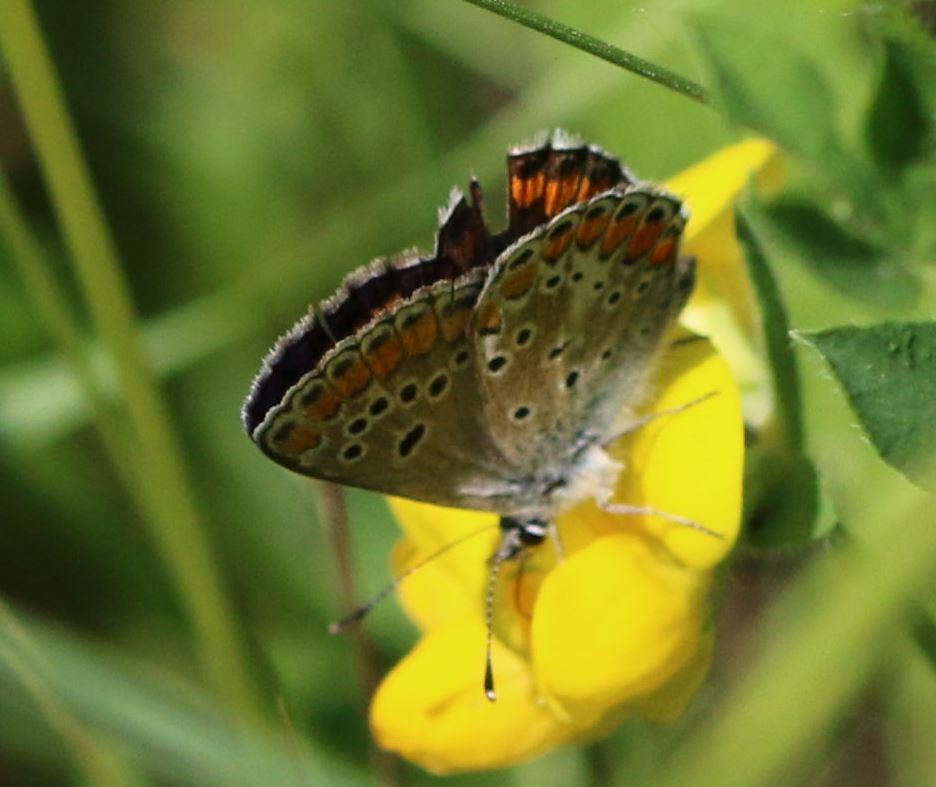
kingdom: Animalia
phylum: Arthropoda
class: Insecta
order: Lepidoptera
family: Lycaenidae
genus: Aricia
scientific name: Aricia agestis
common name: Brown argus
